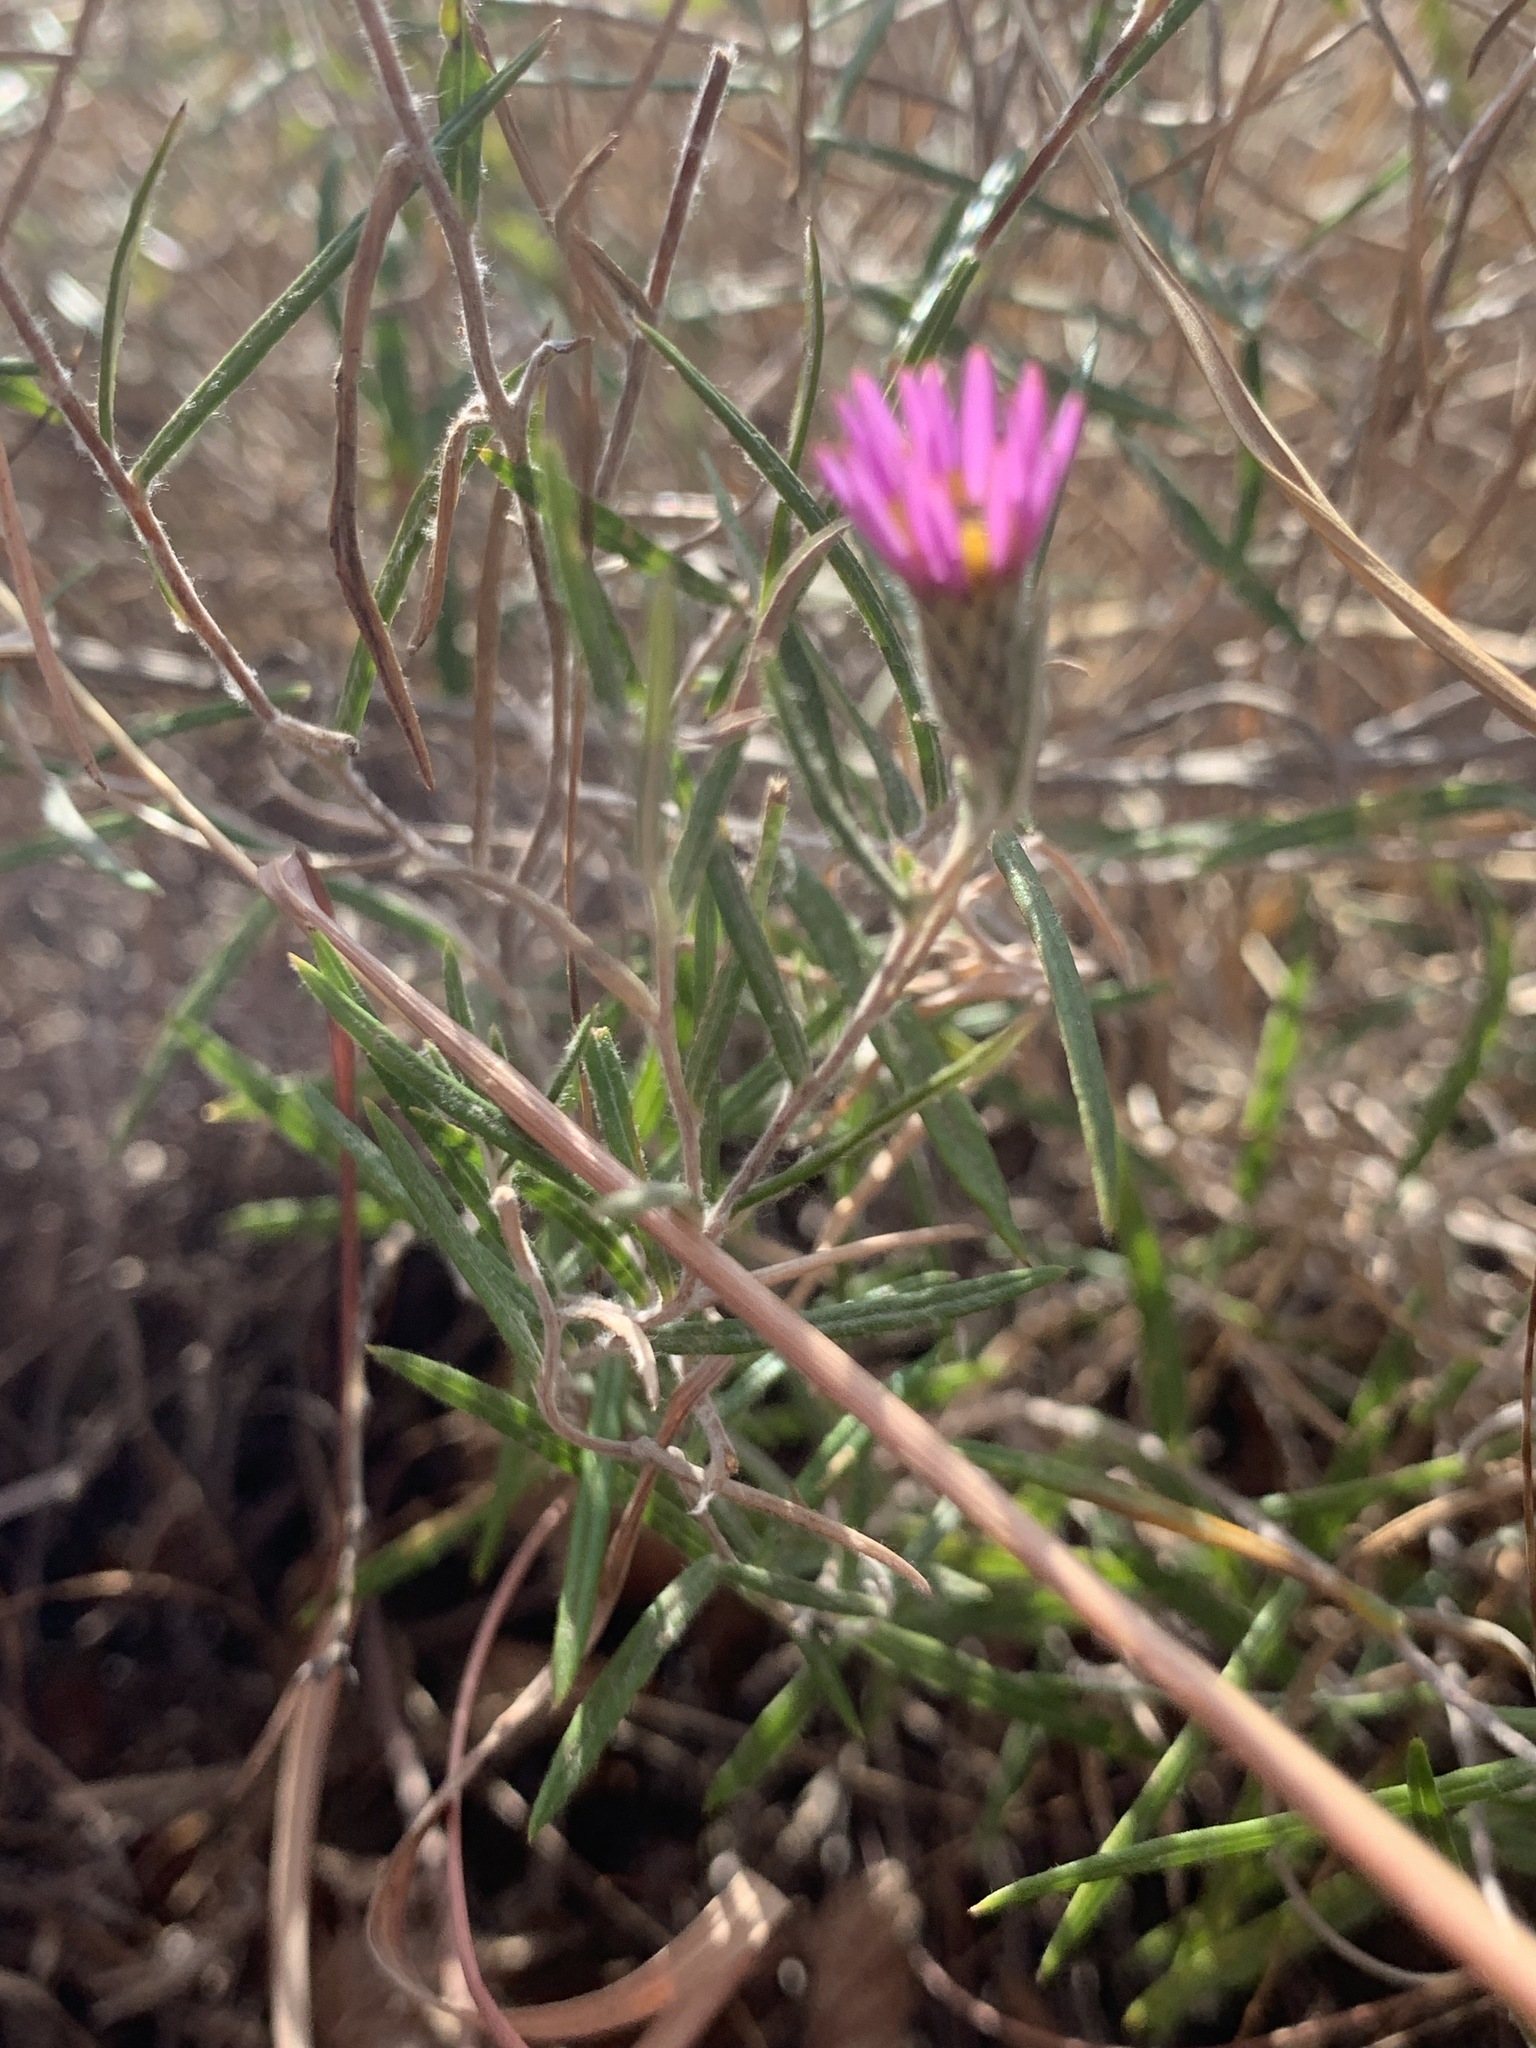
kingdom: Plantae
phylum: Tracheophyta
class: Magnoliopsida
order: Asterales
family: Asteraceae
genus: Afroaster
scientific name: Afroaster serrulatus
